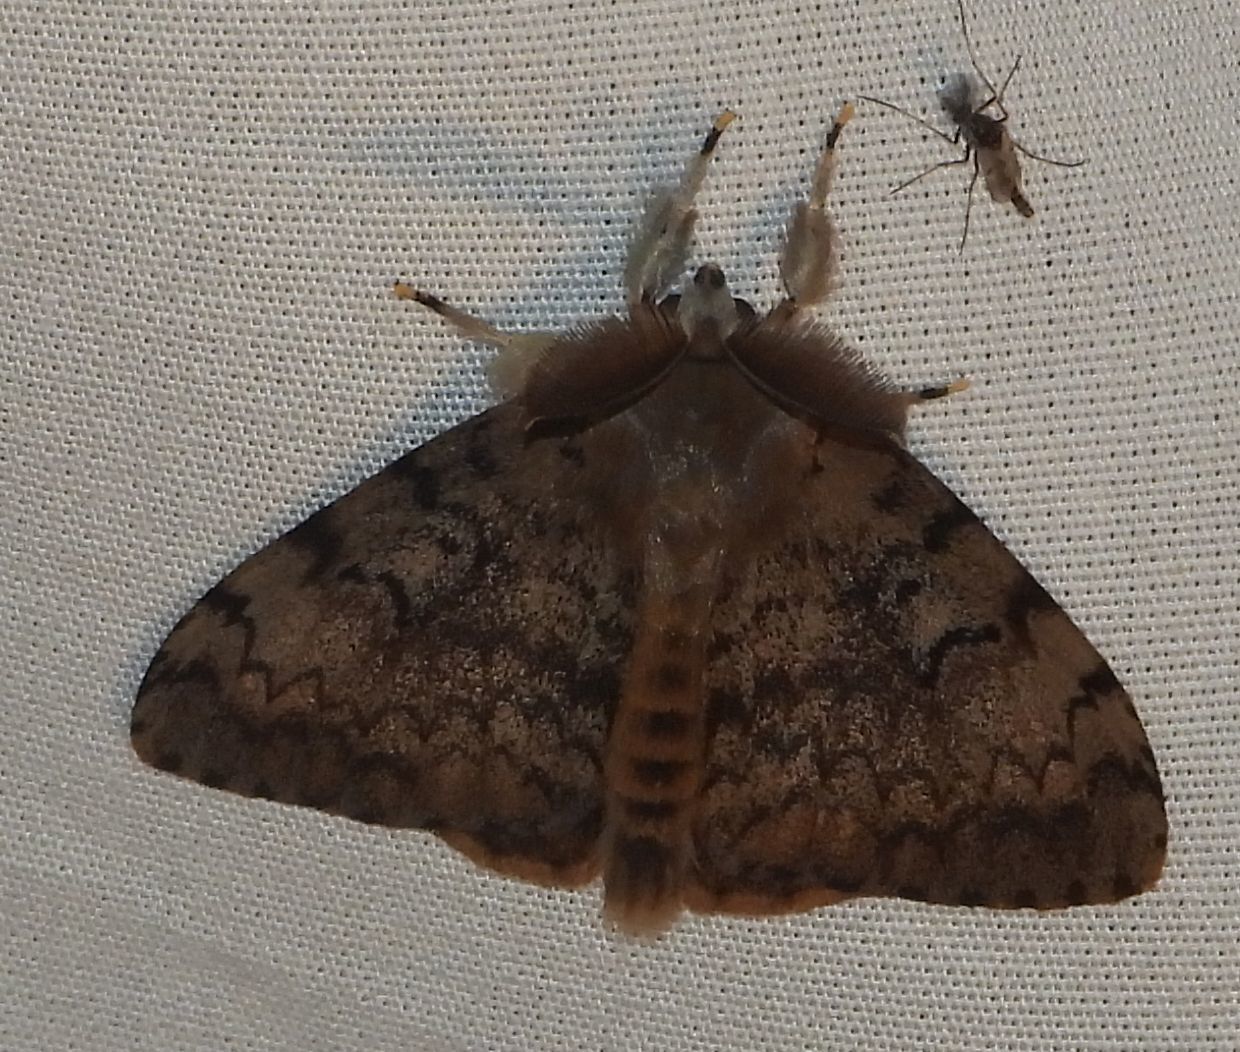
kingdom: Animalia
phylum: Arthropoda
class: Insecta
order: Lepidoptera
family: Erebidae
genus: Lymantria
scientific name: Lymantria dispar
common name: Gypsy moth
